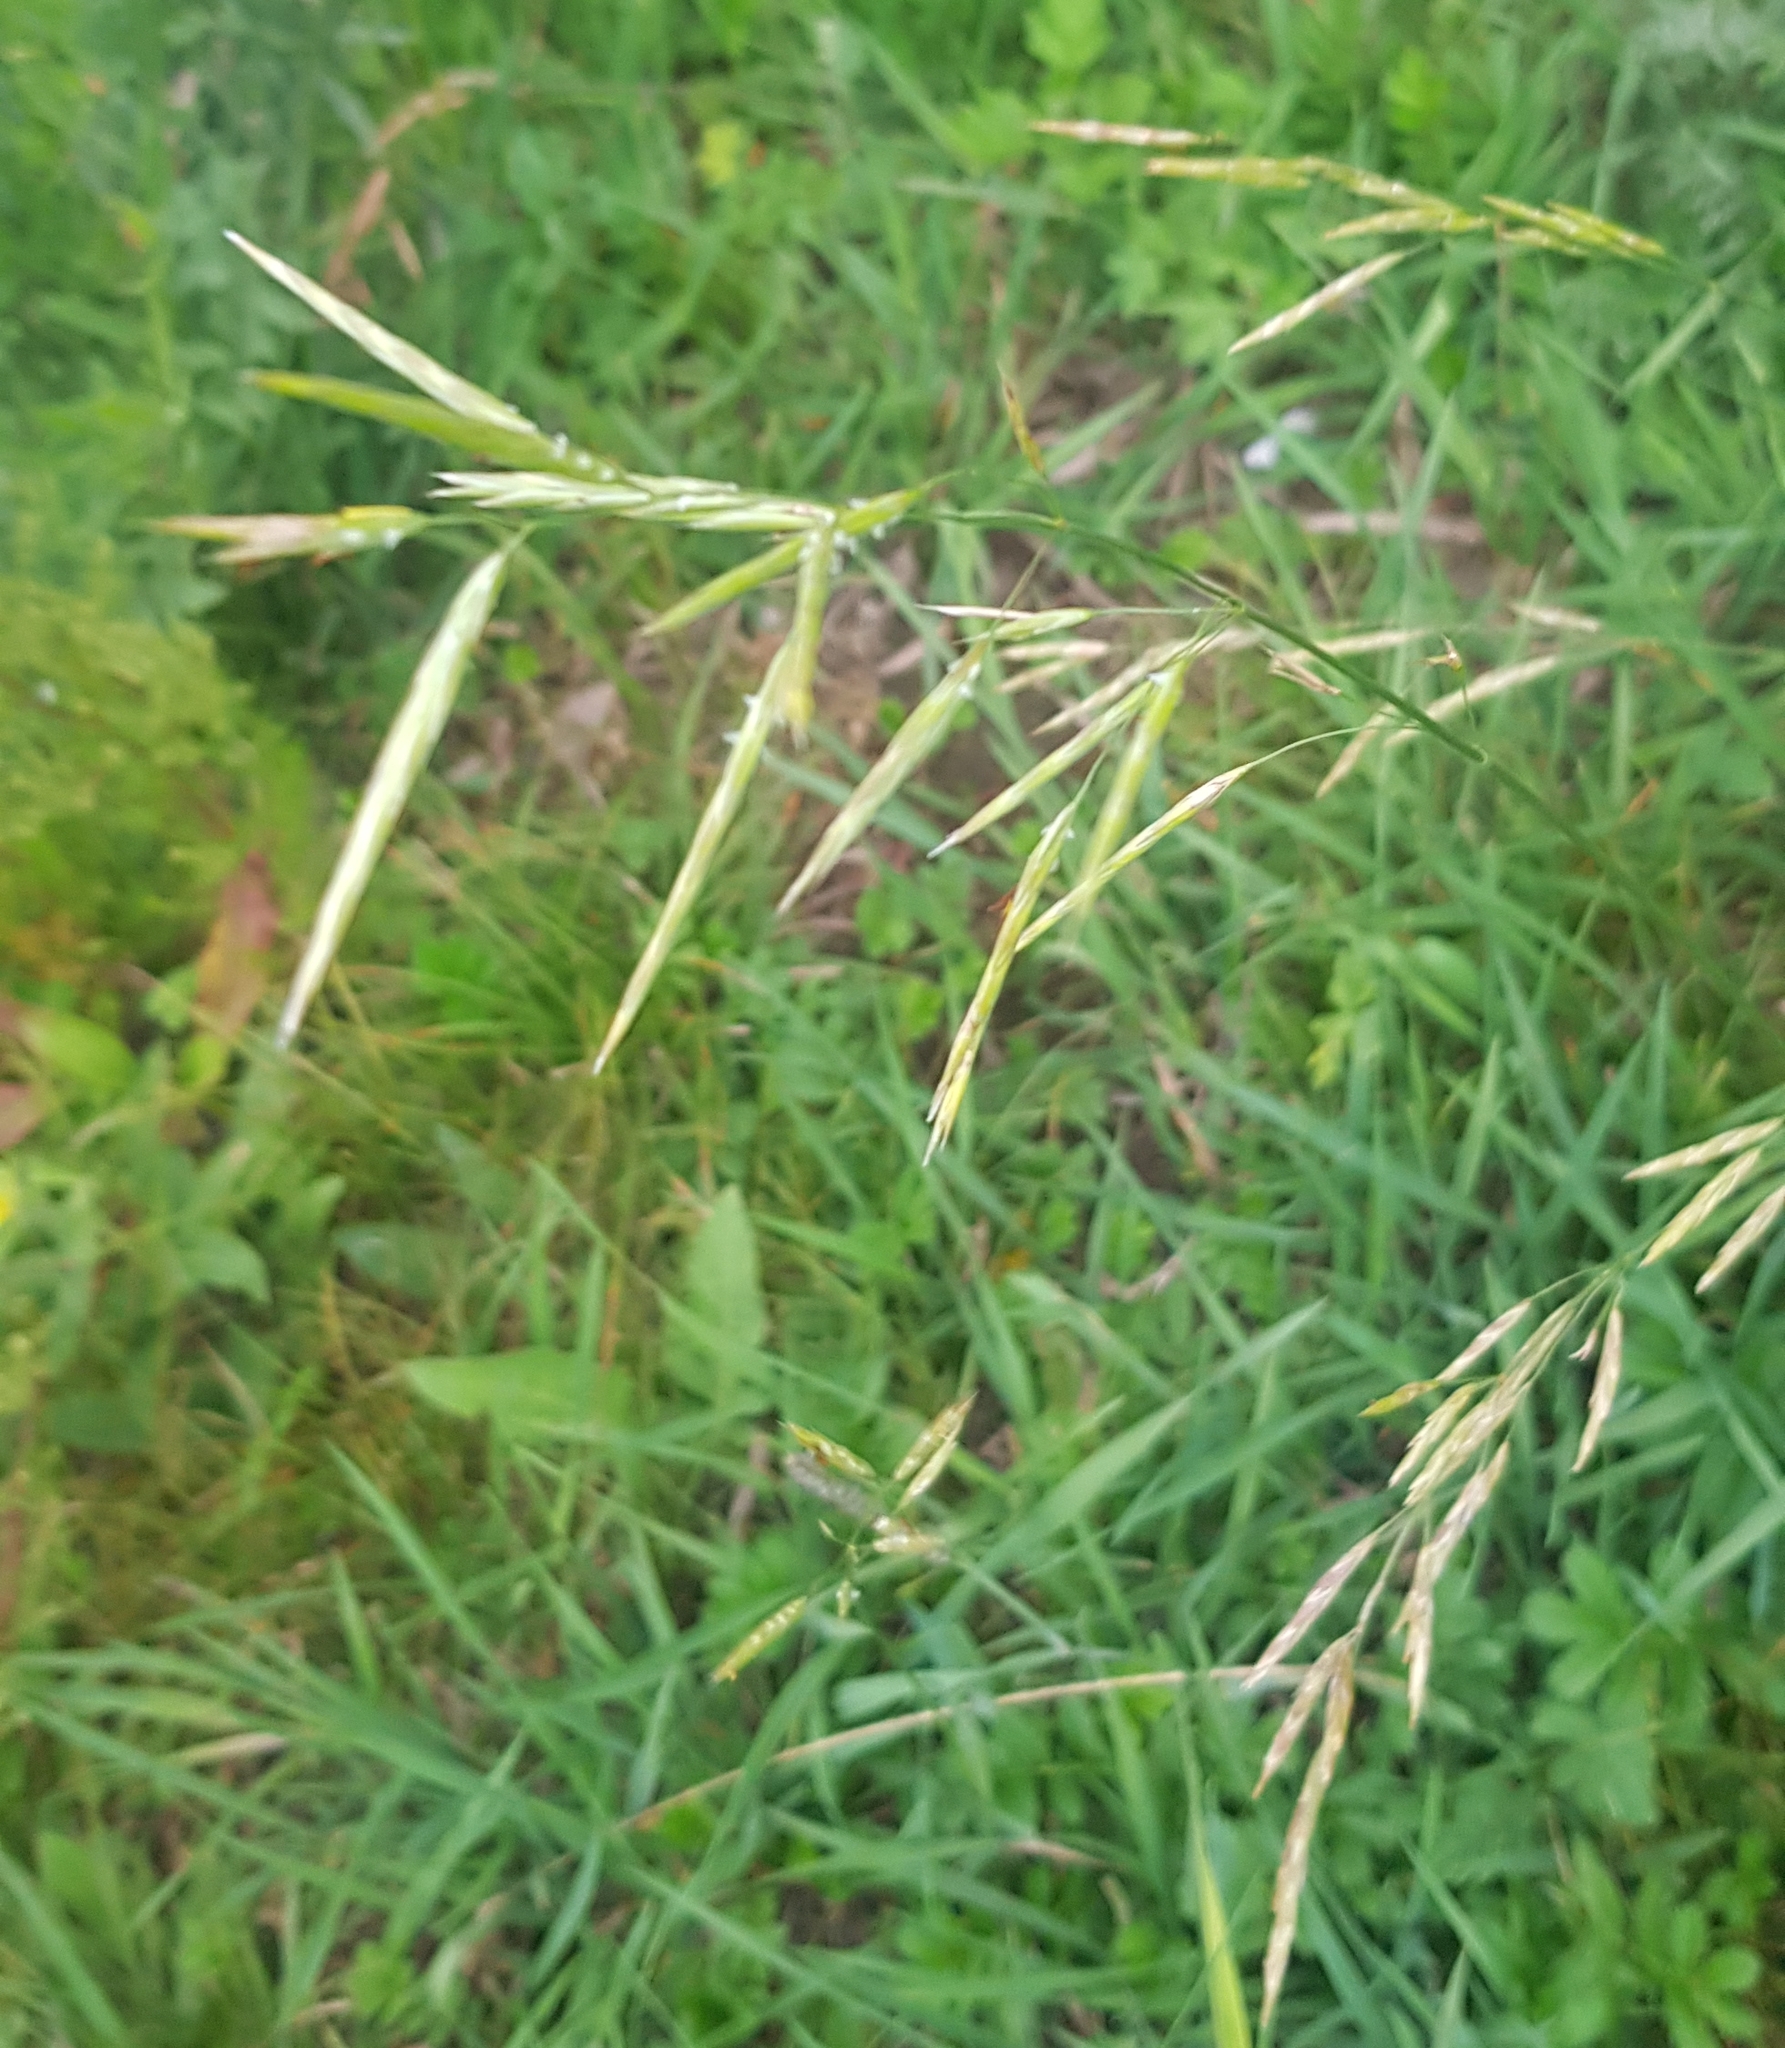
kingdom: Plantae
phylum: Tracheophyta
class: Liliopsida
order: Poales
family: Poaceae
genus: Bromus
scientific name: Bromus inermis
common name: Smooth brome
